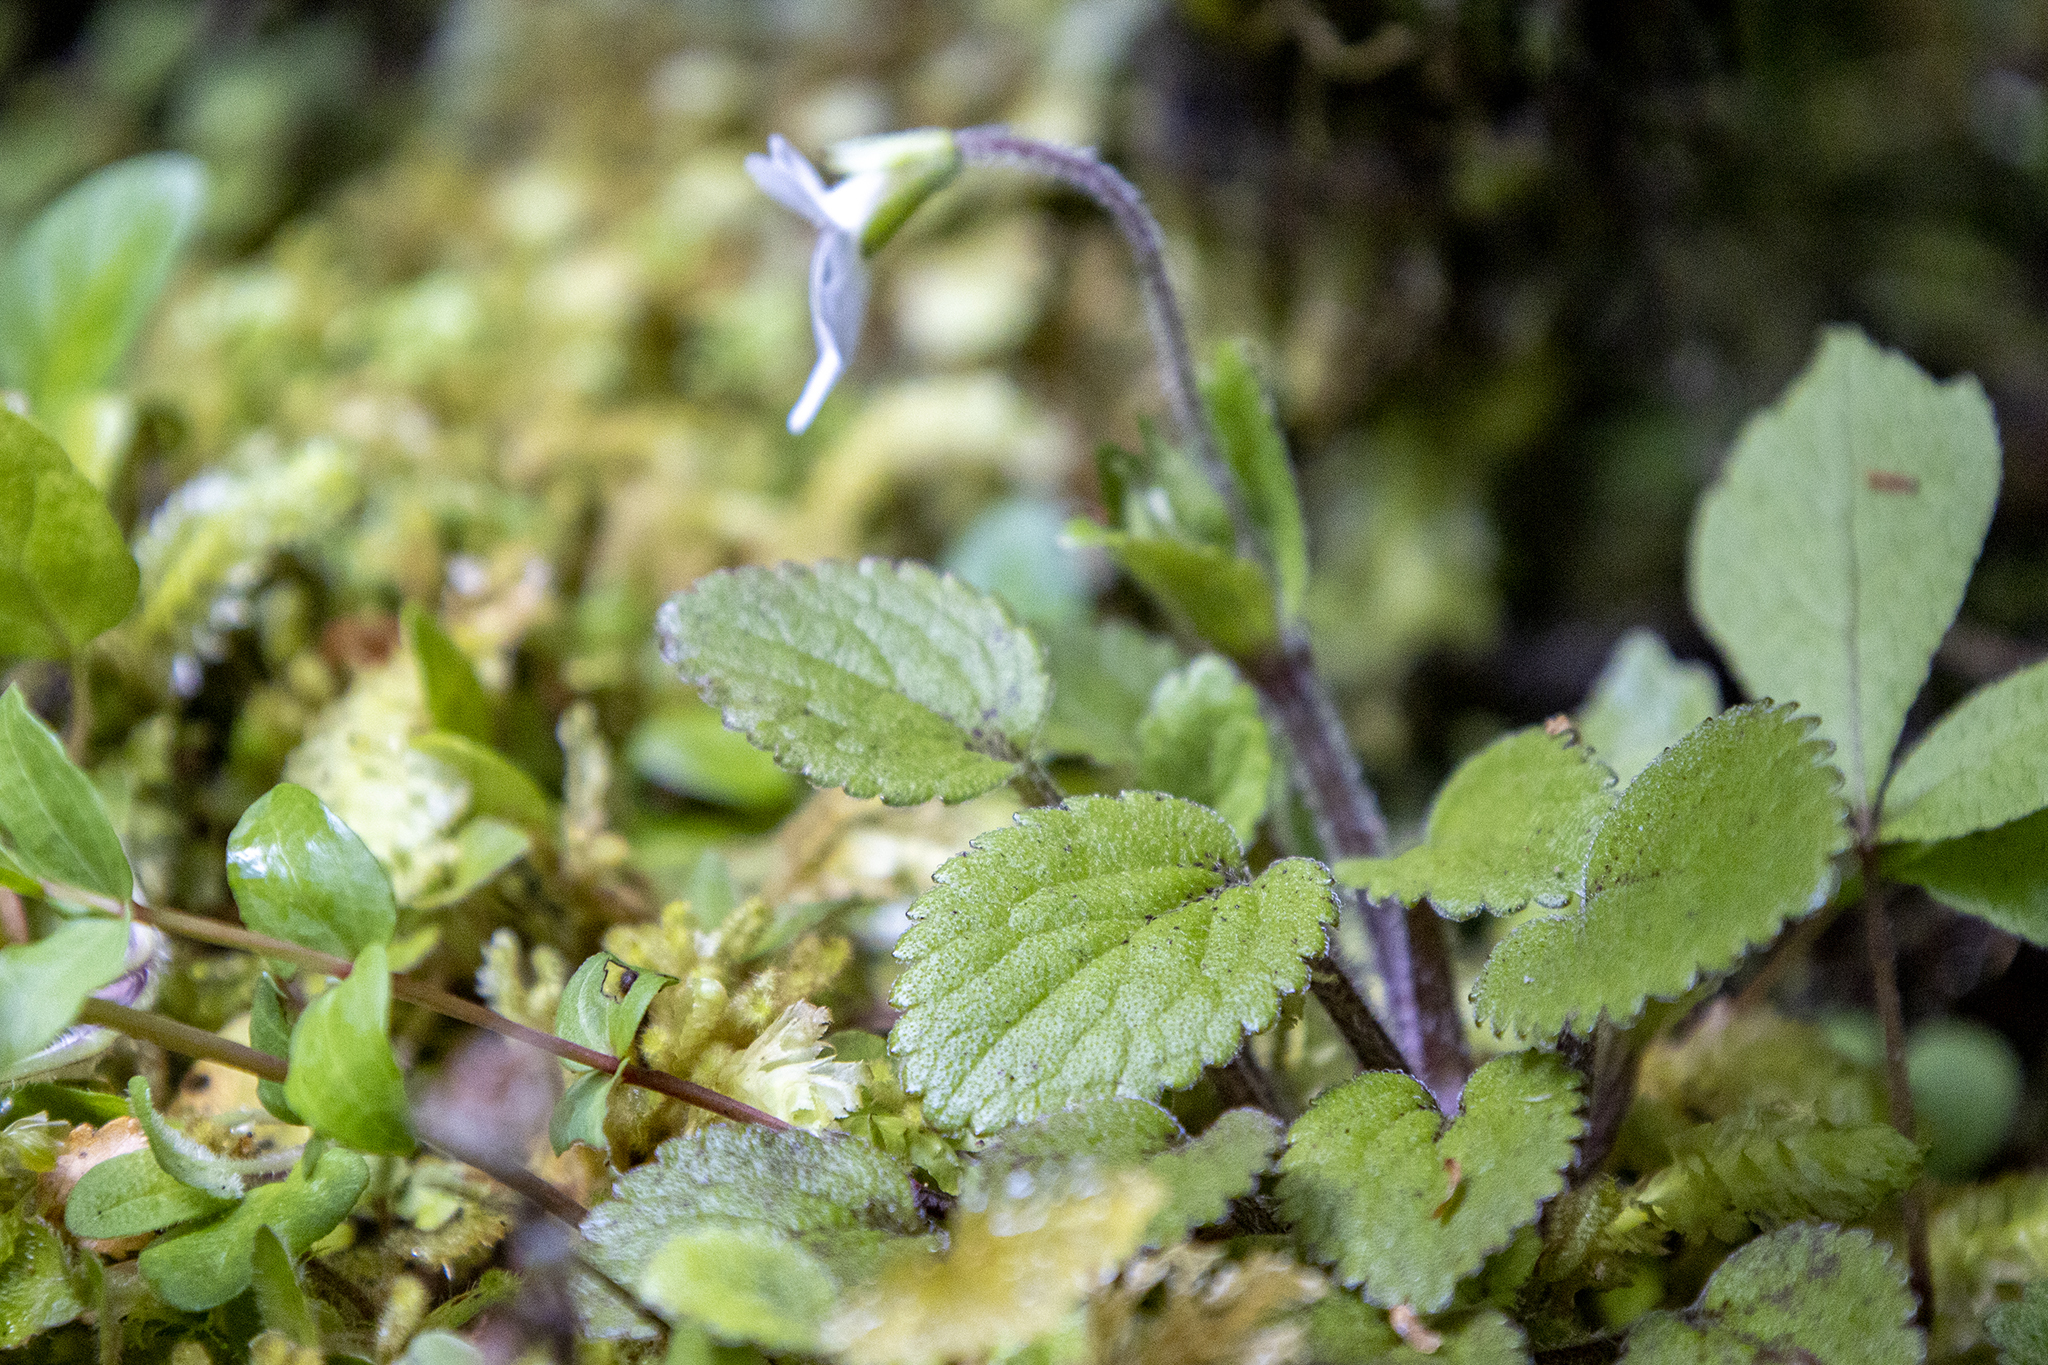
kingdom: Plantae
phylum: Tracheophyta
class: Magnoliopsida
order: Lamiales
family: Plantaginaceae
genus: Ourisia
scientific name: Ourisia macrophylla
